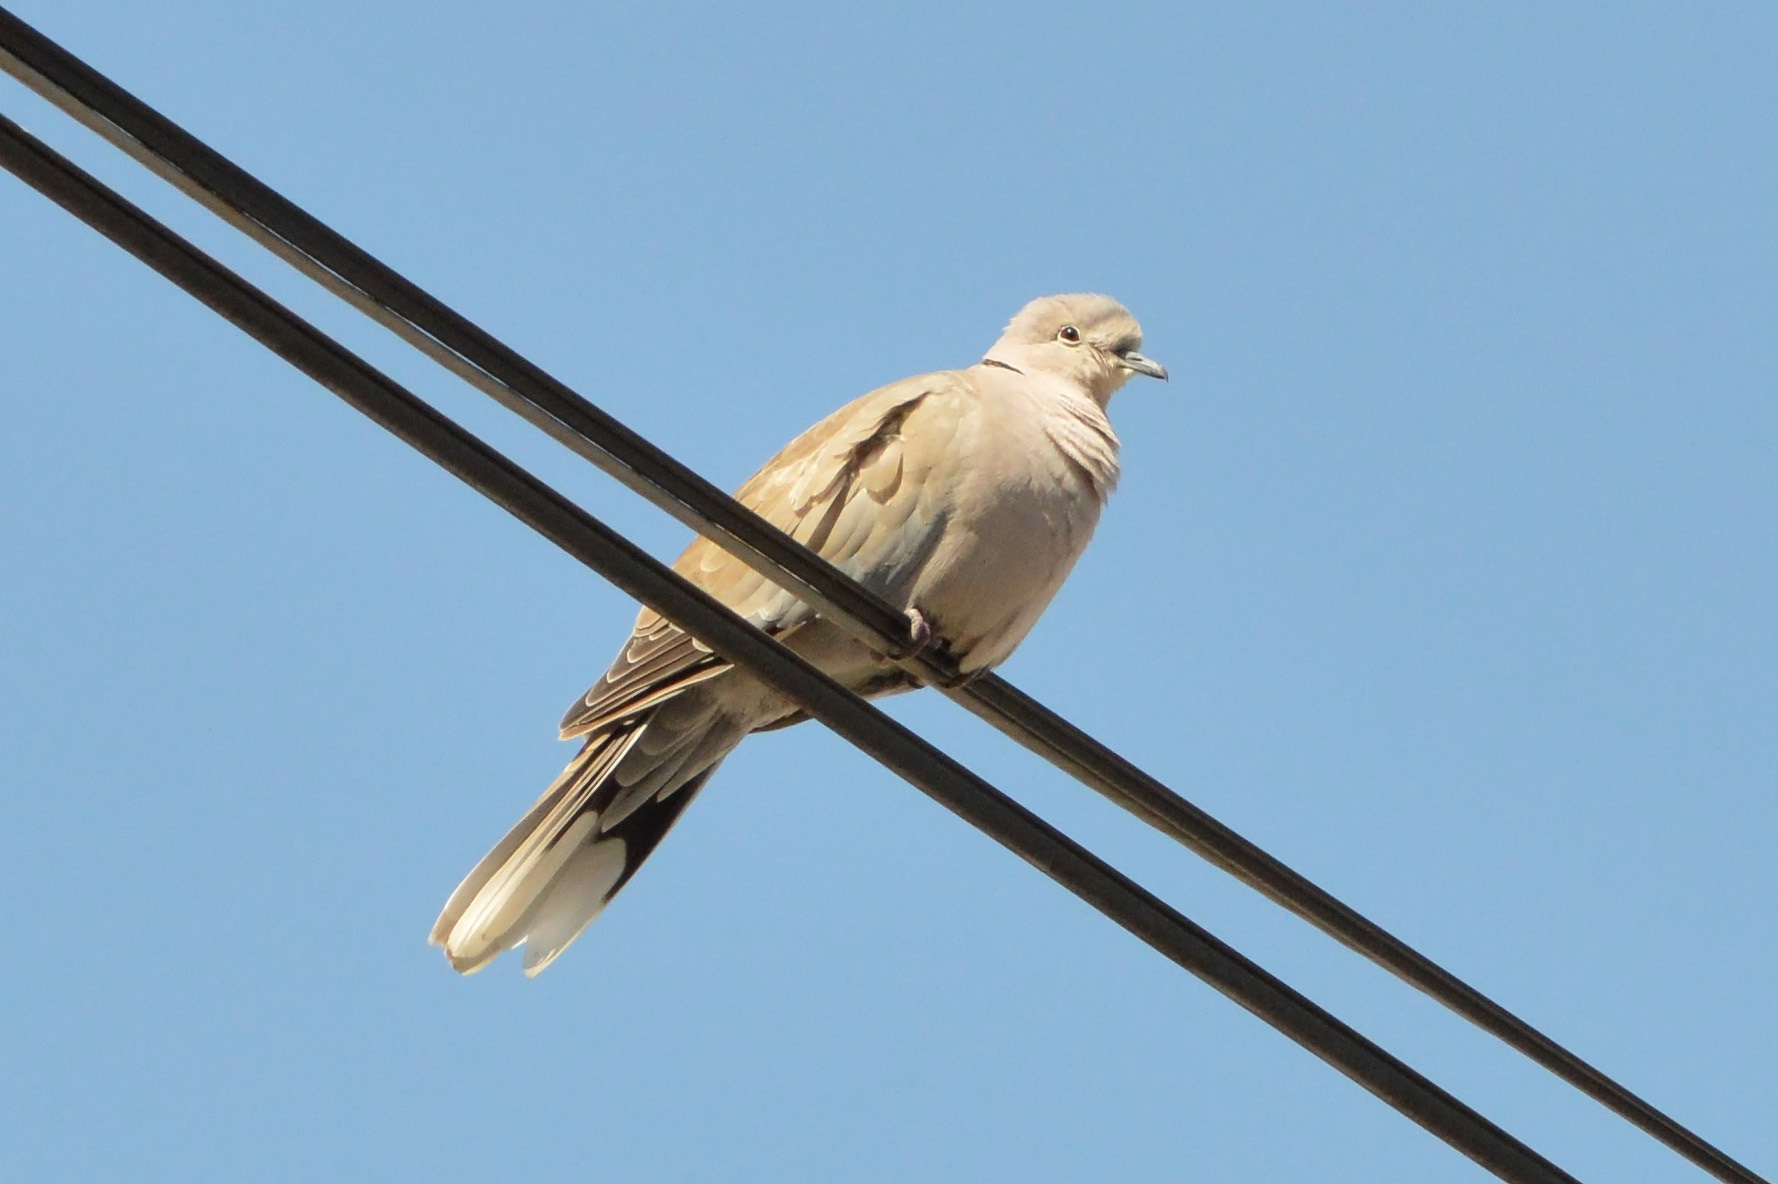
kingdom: Animalia
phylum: Chordata
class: Aves
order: Columbiformes
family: Columbidae
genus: Streptopelia
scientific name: Streptopelia decaocto
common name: Eurasian collared dove
